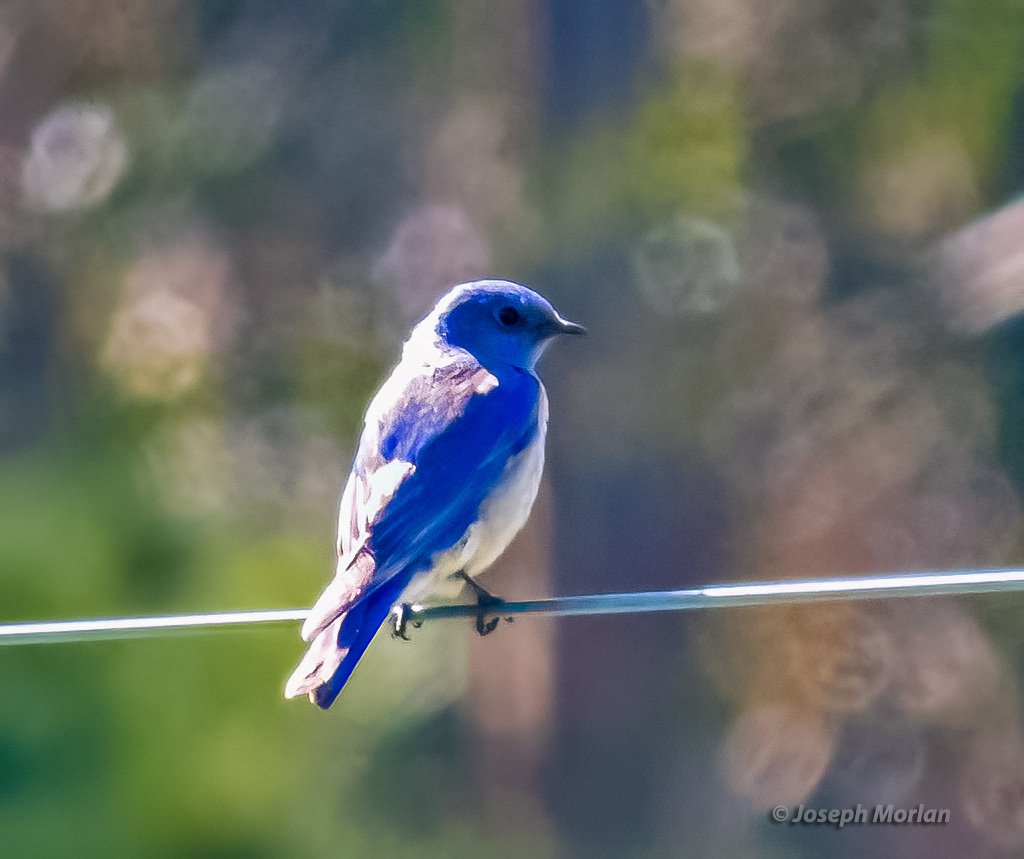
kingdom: Animalia
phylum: Chordata
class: Aves
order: Passeriformes
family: Turdidae
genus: Sialia
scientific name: Sialia mexicana
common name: Western bluebird
